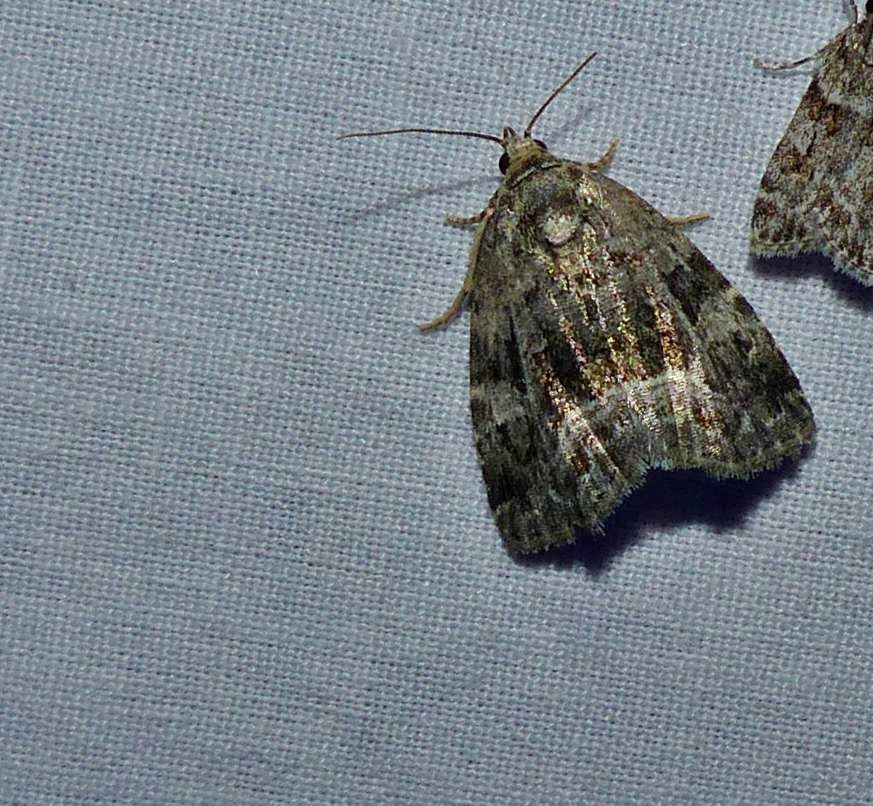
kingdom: Animalia
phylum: Arthropoda
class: Insecta
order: Lepidoptera
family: Noctuidae
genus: Protodeltote
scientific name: Protodeltote muscosula
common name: Large mossy glyph
